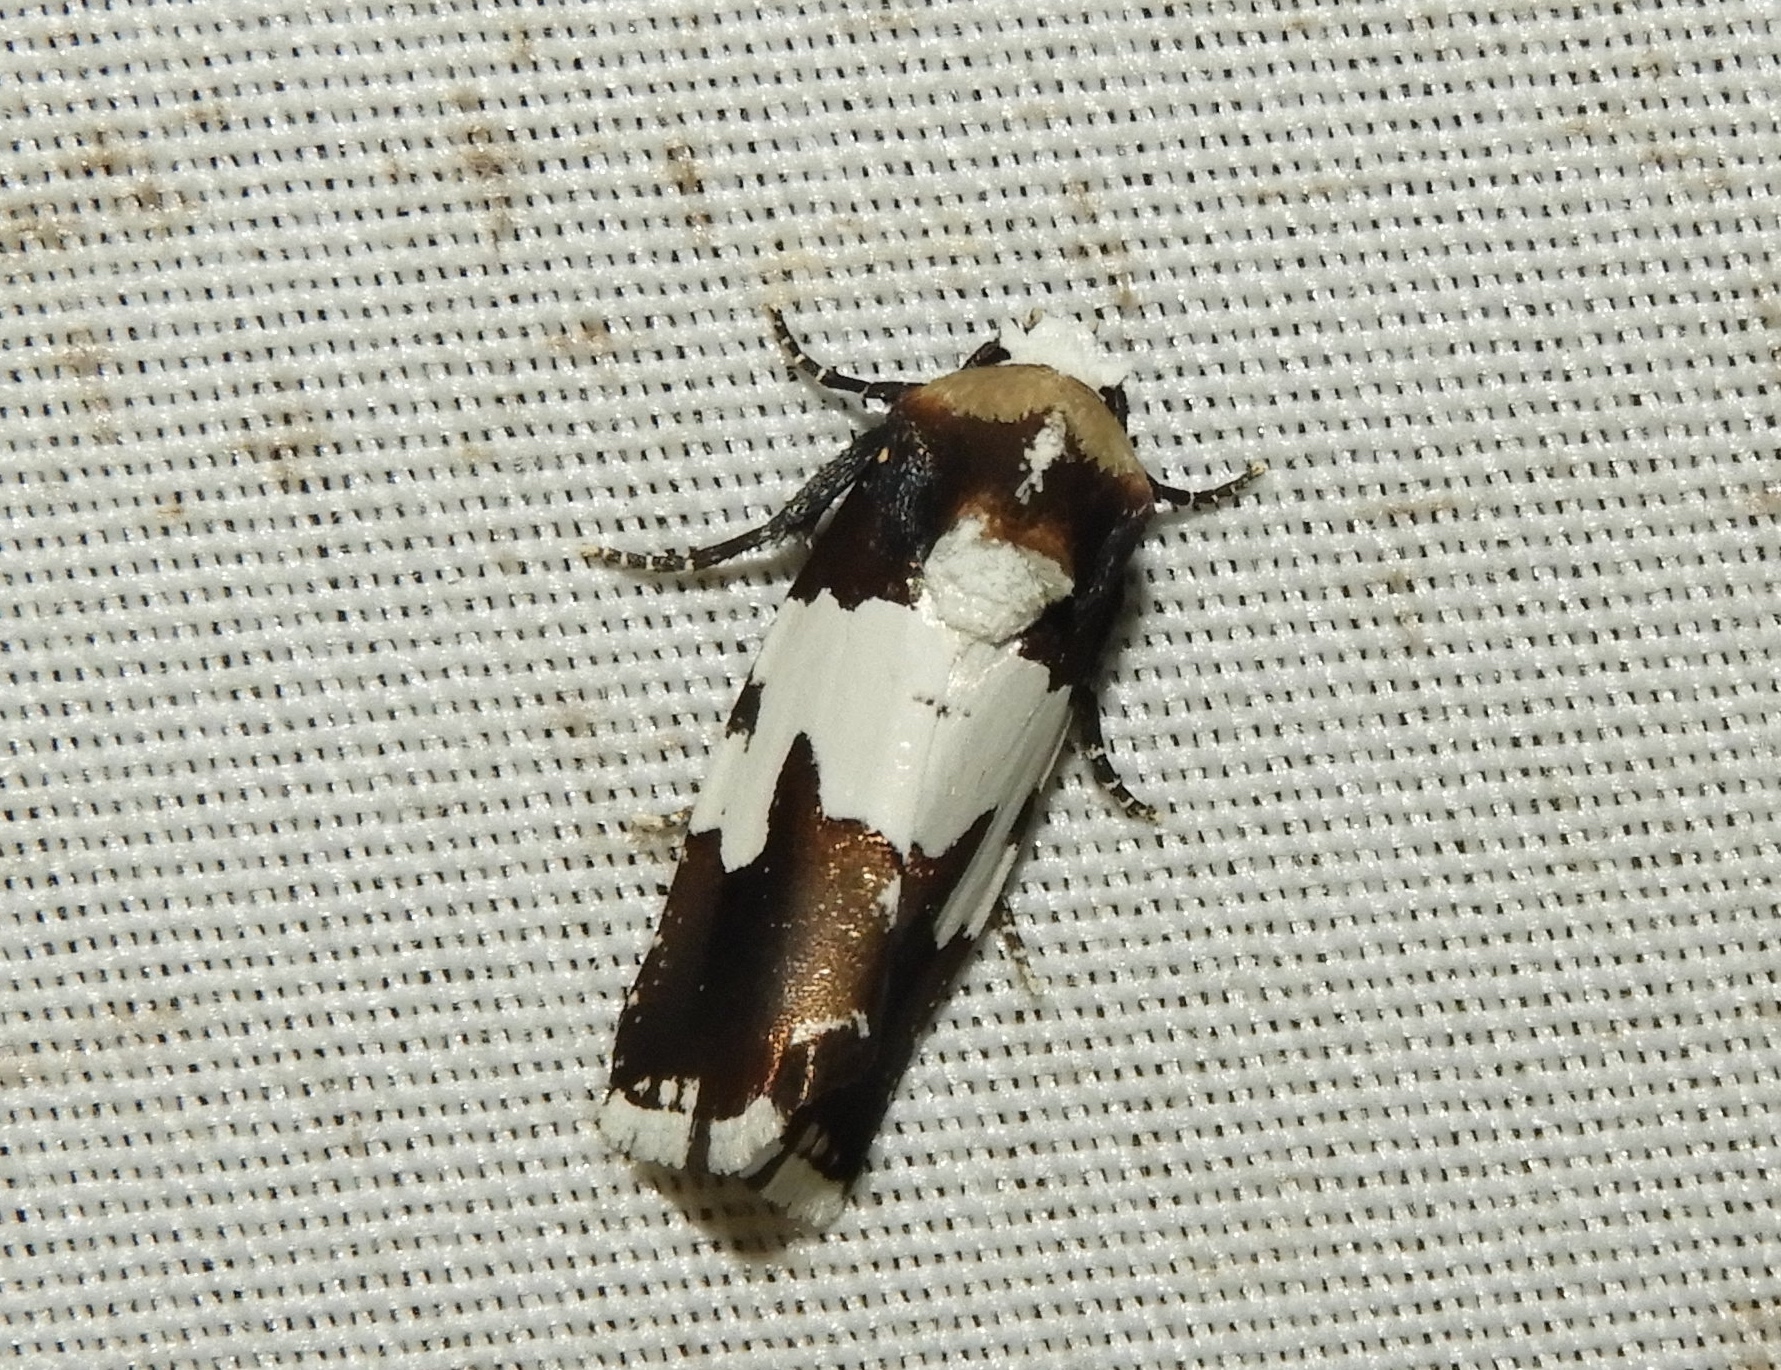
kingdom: Animalia
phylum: Arthropoda
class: Insecta
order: Lepidoptera
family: Noctuidae
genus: Bryolymnia
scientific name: Bryolymnia marginata
